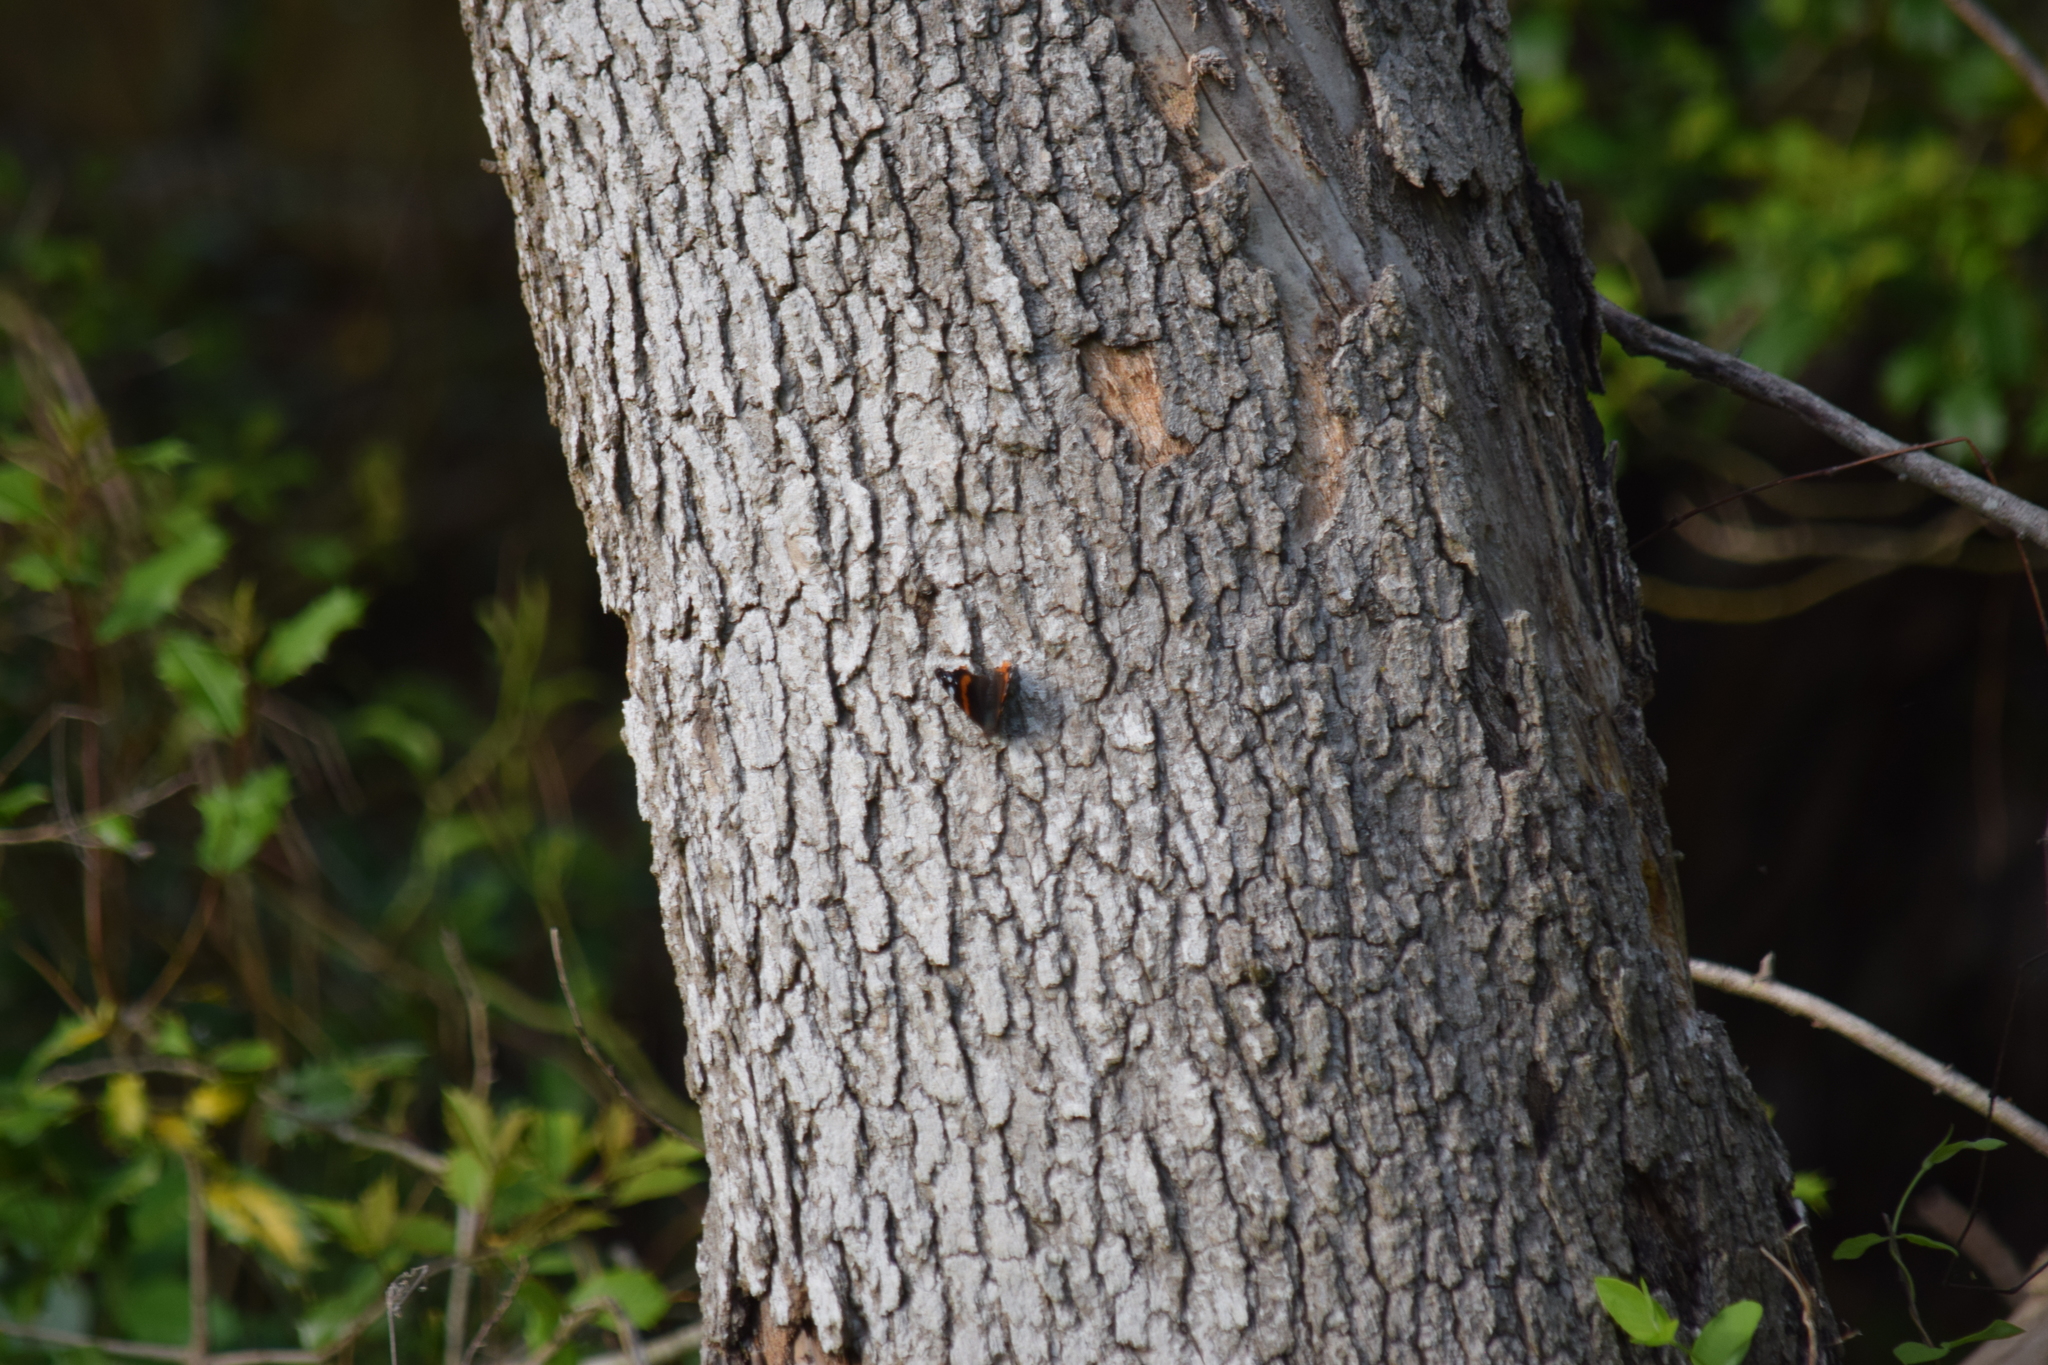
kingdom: Animalia
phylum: Arthropoda
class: Insecta
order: Lepidoptera
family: Nymphalidae
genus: Vanessa
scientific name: Vanessa atalanta
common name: Red admiral
